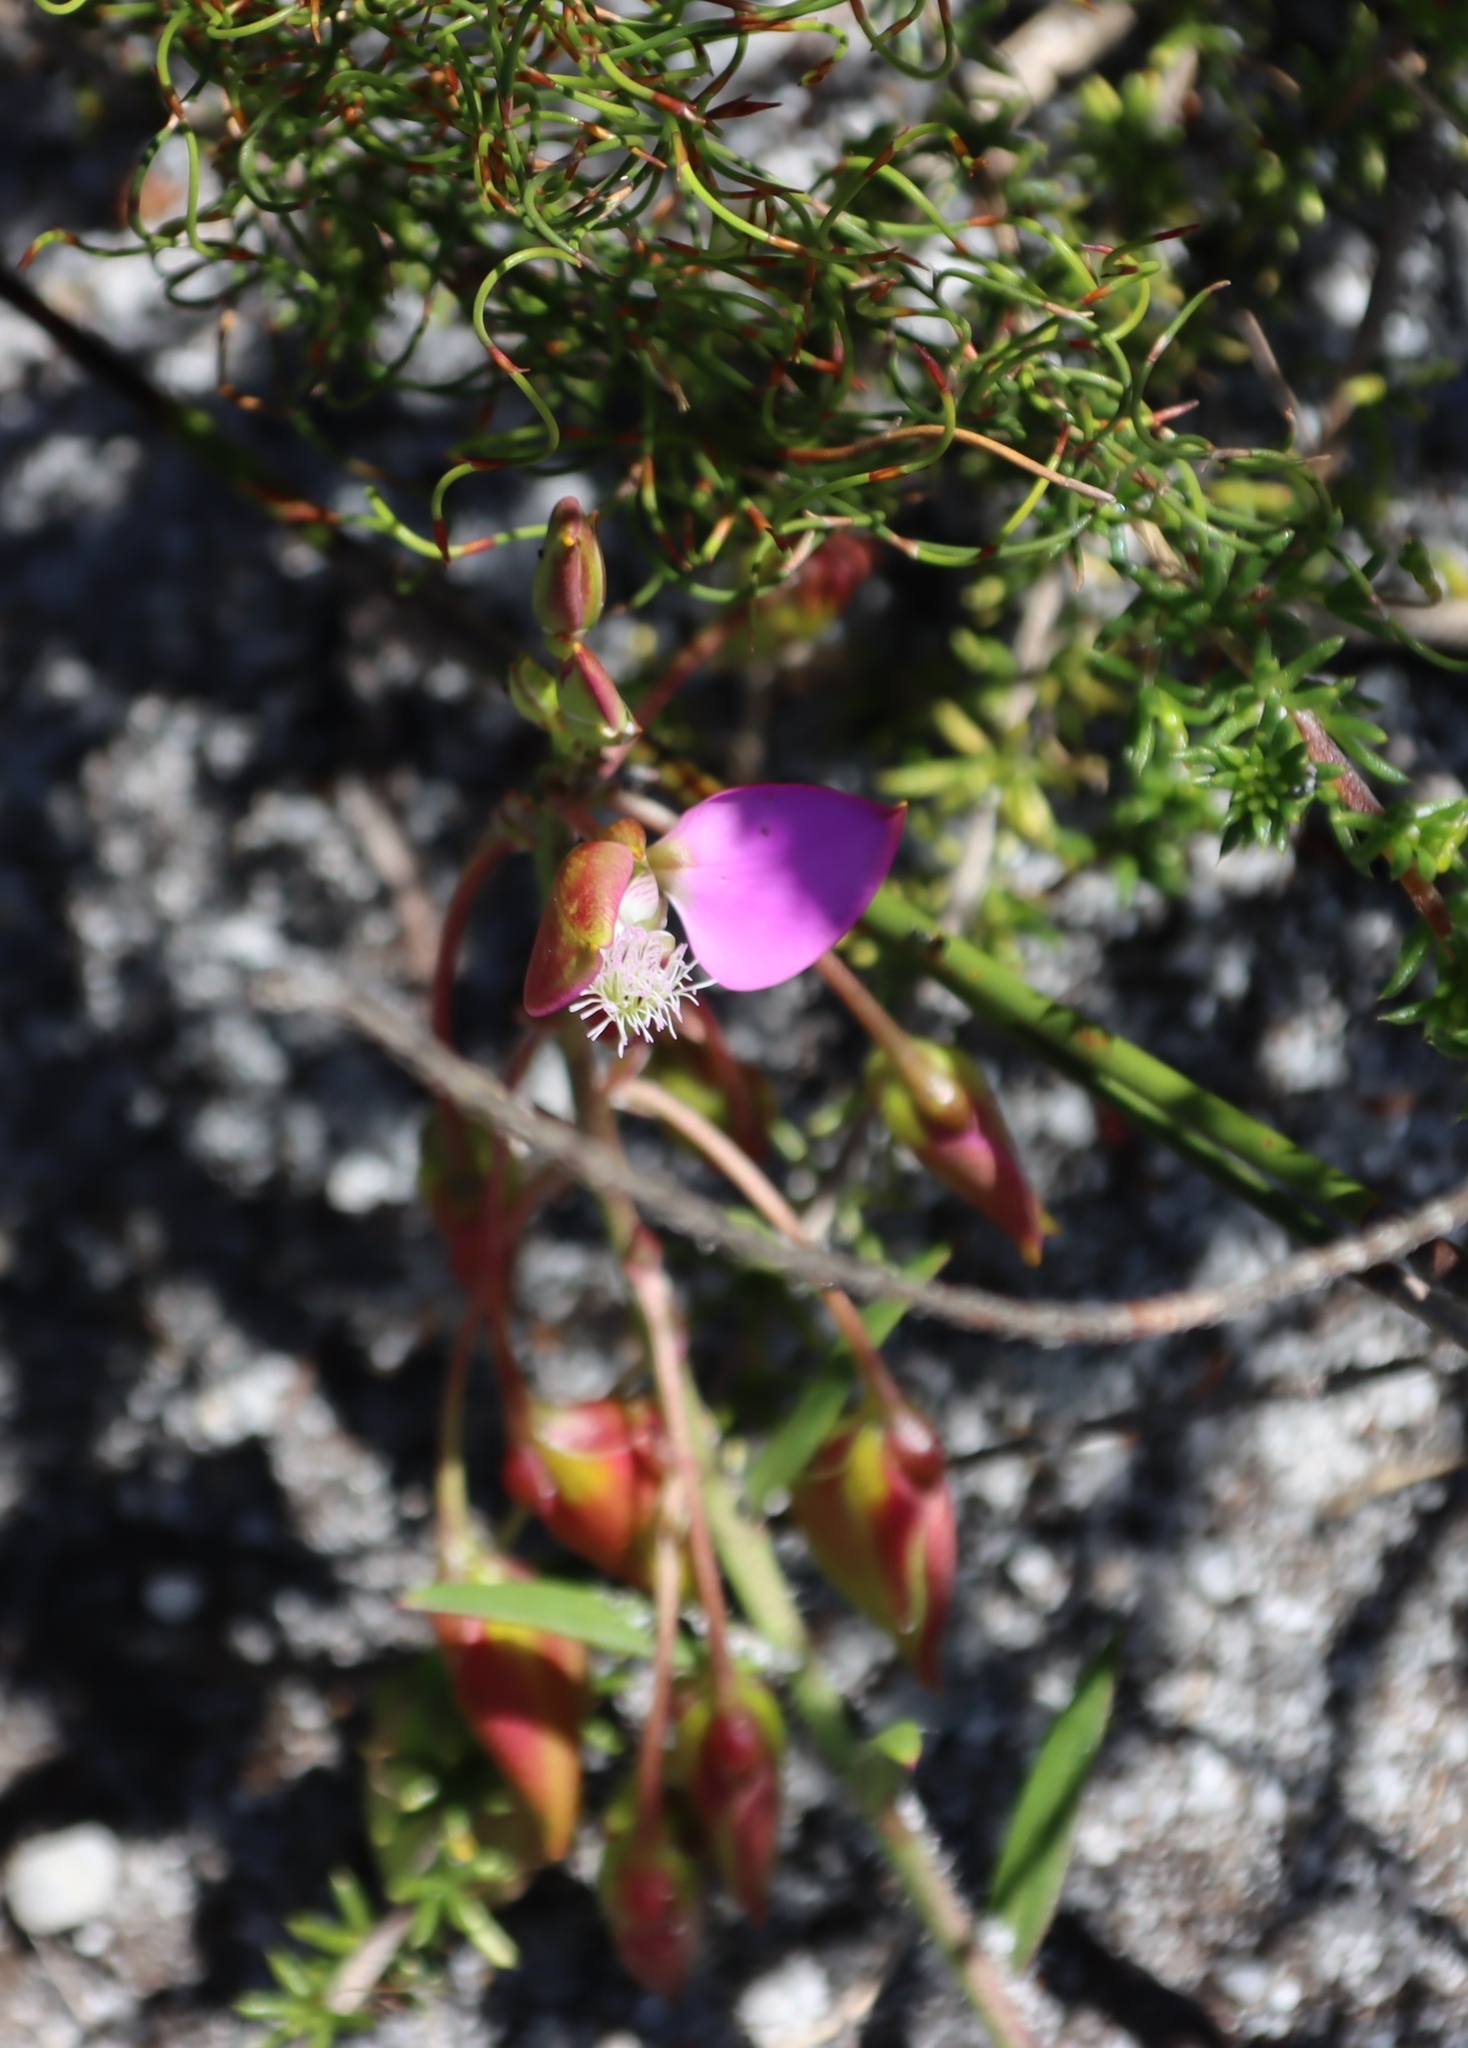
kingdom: Plantae
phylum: Tracheophyta
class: Magnoliopsida
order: Fabales
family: Polygalaceae
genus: Polygala
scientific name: Polygala bracteolata
